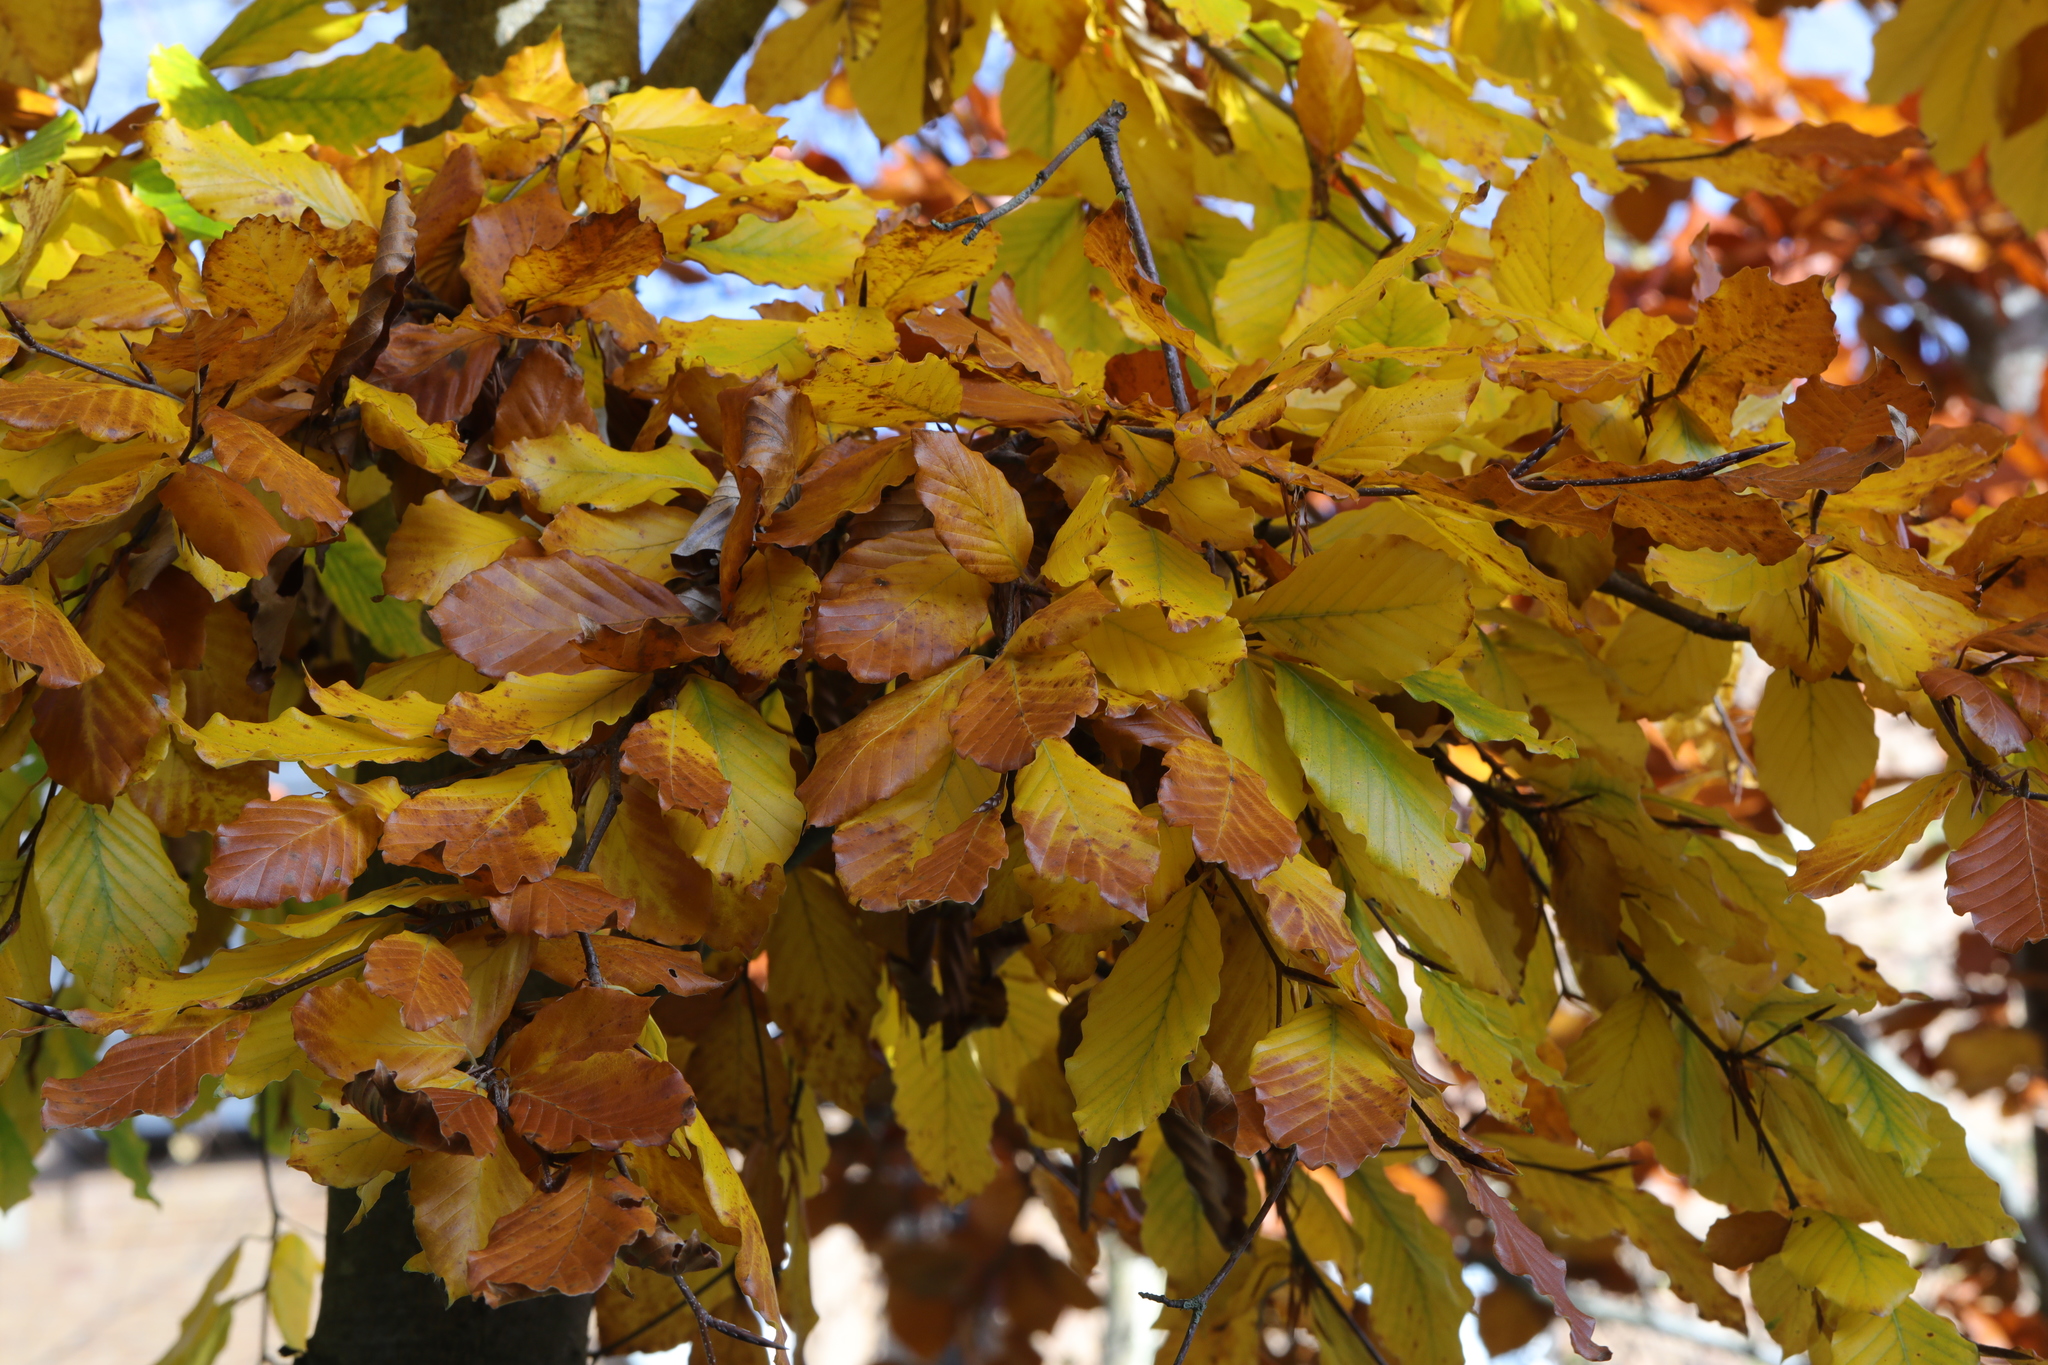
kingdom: Plantae
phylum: Tracheophyta
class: Magnoliopsida
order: Fagales
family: Fagaceae
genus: Fagus
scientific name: Fagus sylvatica
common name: Beech
